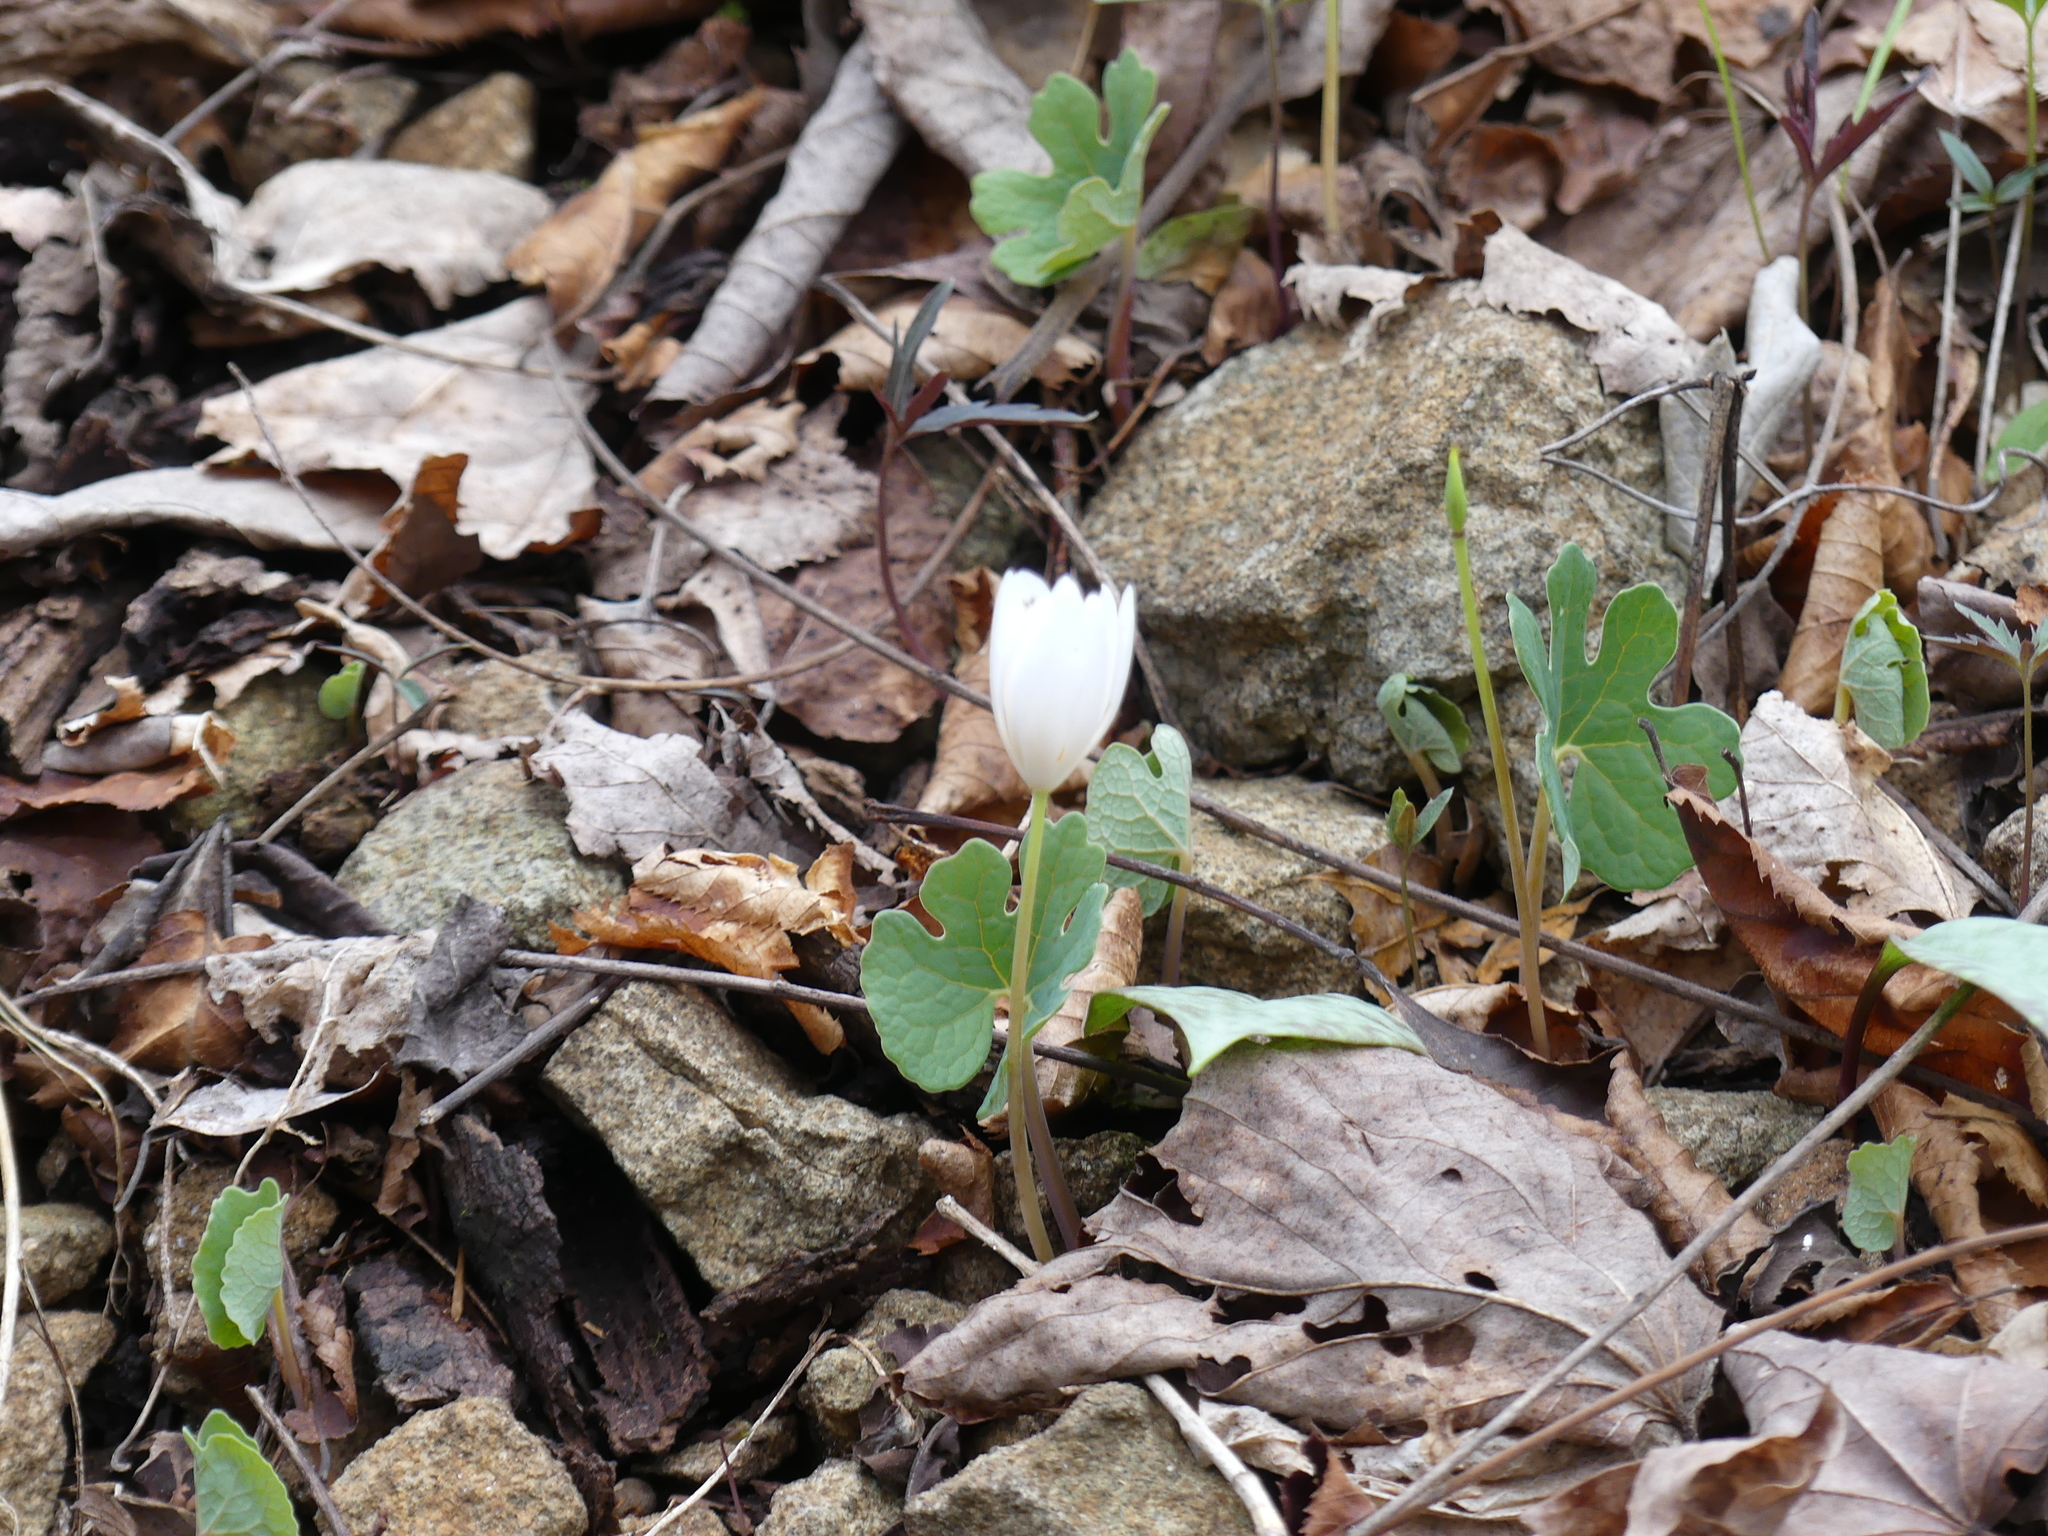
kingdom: Plantae
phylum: Tracheophyta
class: Magnoliopsida
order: Ranunculales
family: Papaveraceae
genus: Sanguinaria
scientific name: Sanguinaria canadensis
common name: Bloodroot
